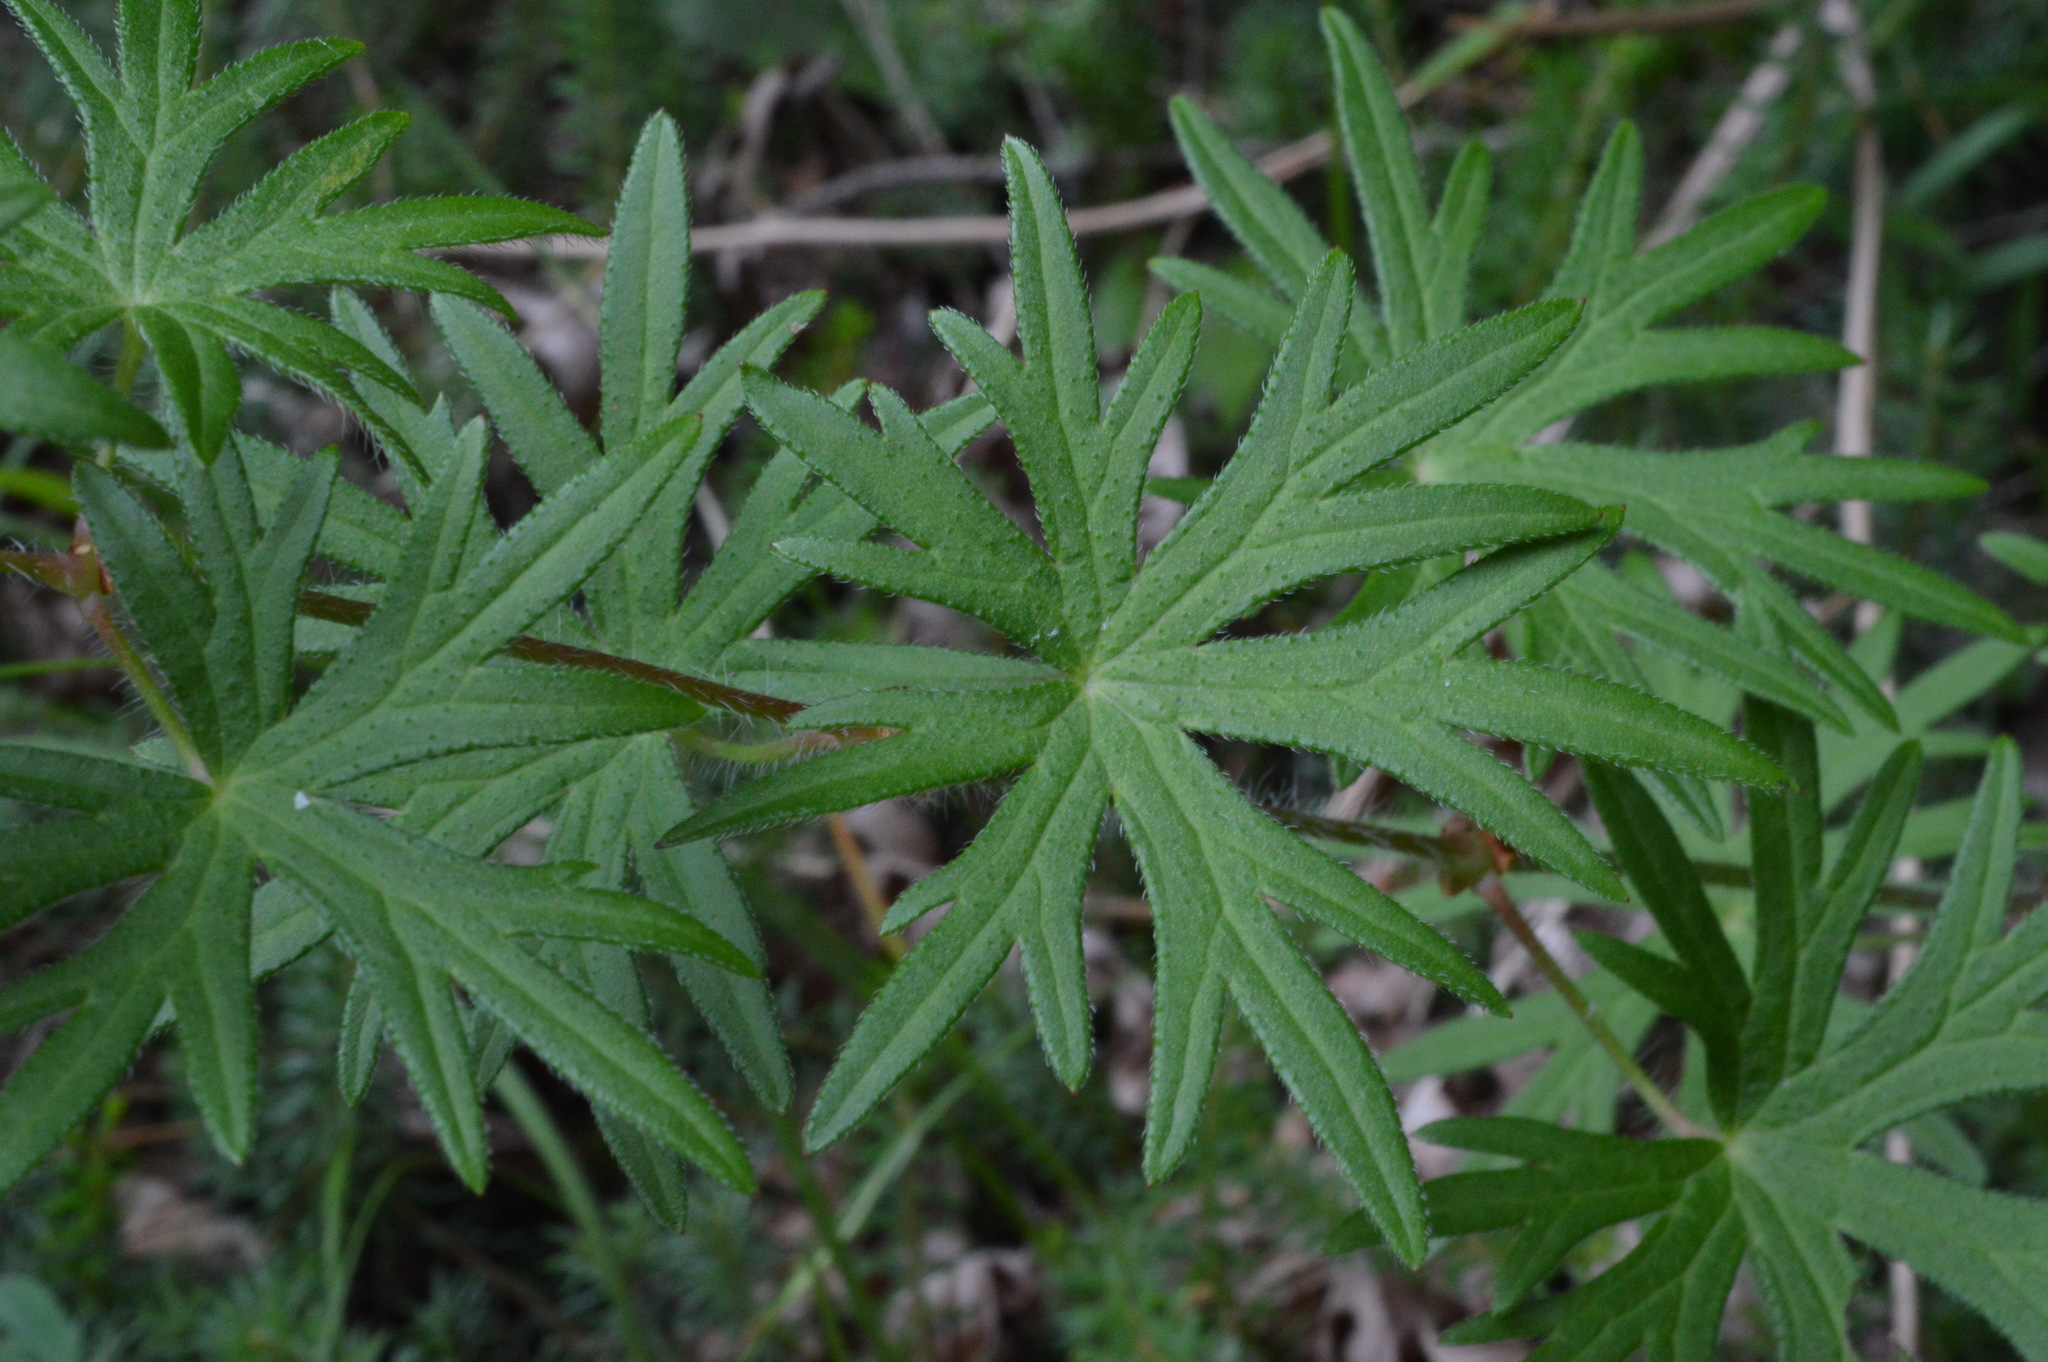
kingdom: Plantae
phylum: Tracheophyta
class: Magnoliopsida
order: Geraniales
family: Geraniaceae
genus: Geranium
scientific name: Geranium sanguineum
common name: Bloody crane's-bill
